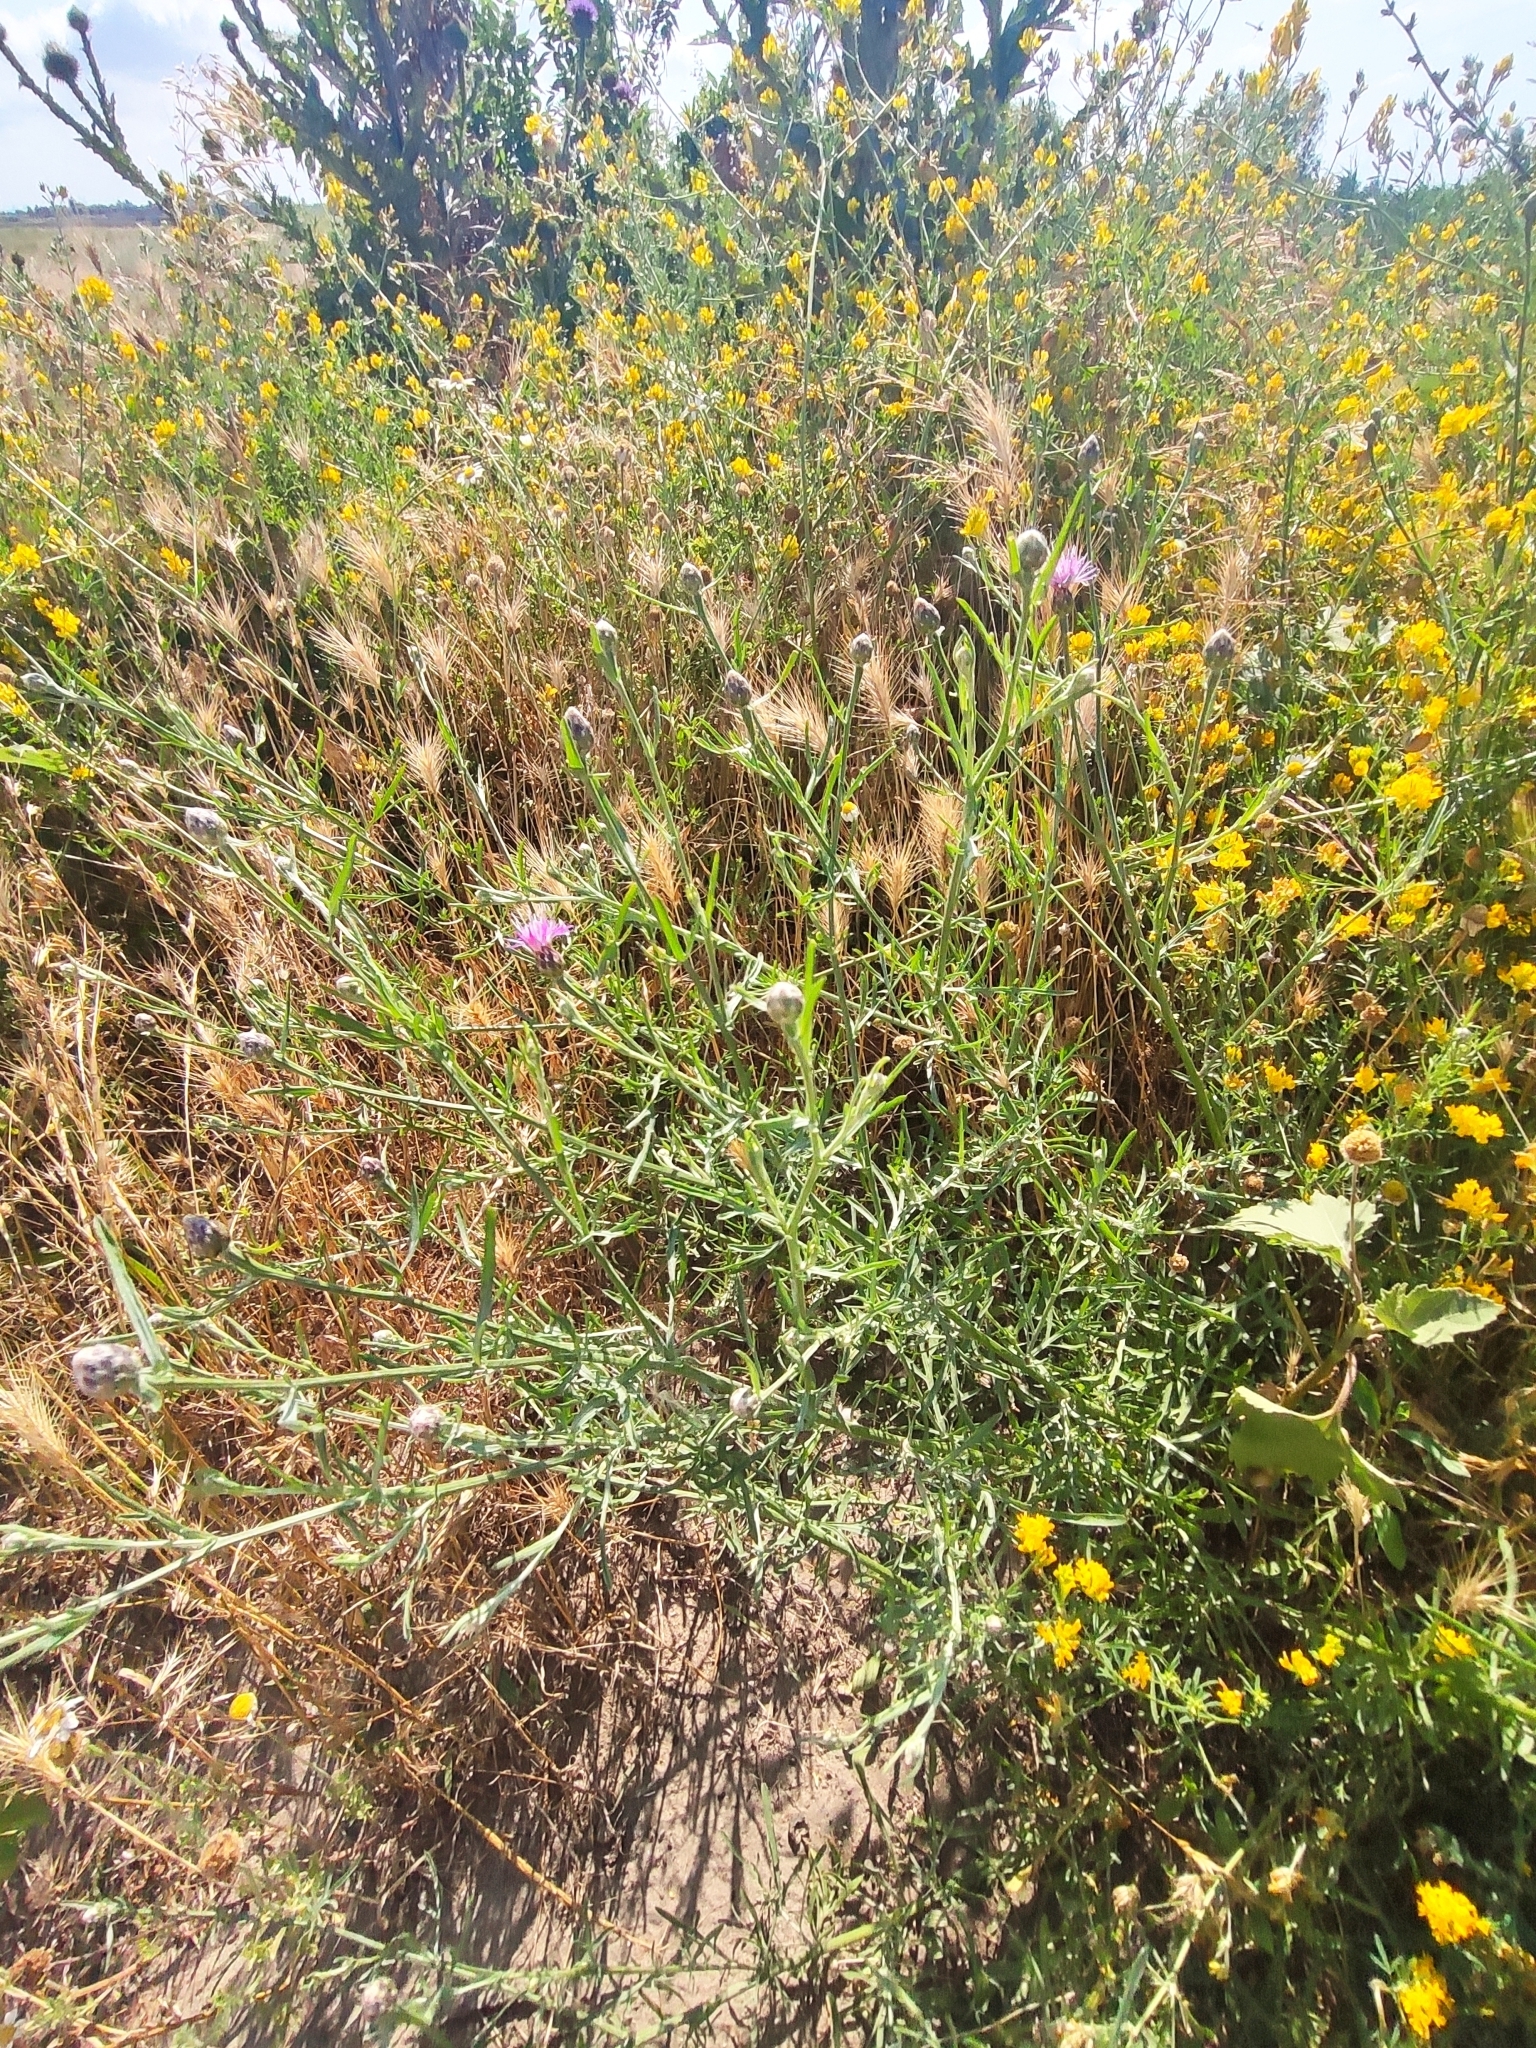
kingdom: Plantae
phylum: Tracheophyta
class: Magnoliopsida
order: Asterales
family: Asteraceae
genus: Centaurea
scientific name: Centaurea arenaria
